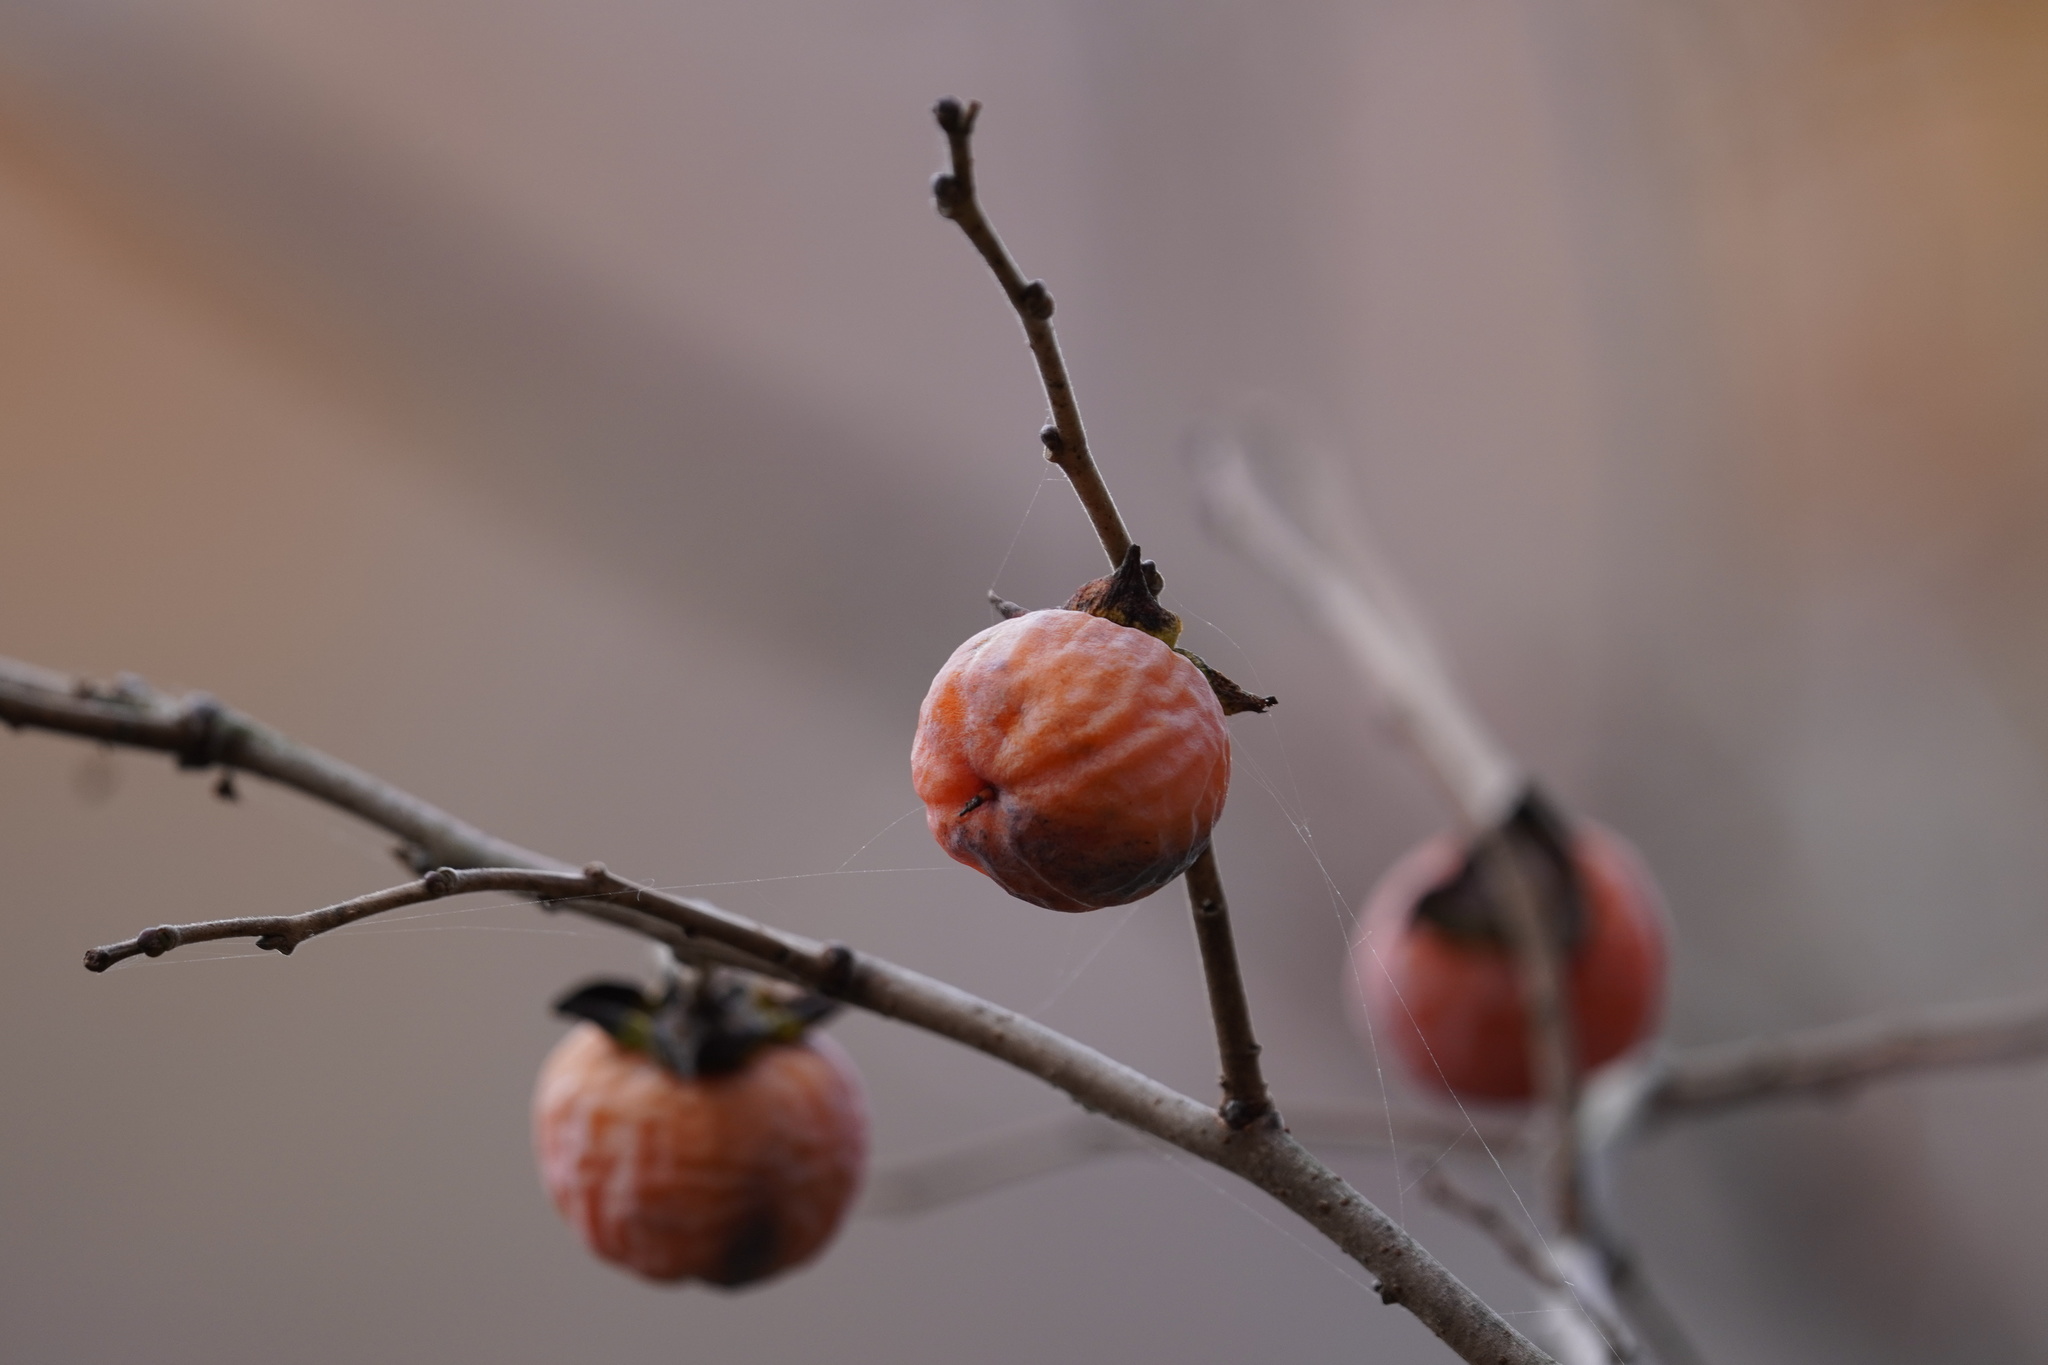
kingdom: Plantae
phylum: Tracheophyta
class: Magnoliopsida
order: Ericales
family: Ebenaceae
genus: Diospyros
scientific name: Diospyros virginiana
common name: Persimmon
